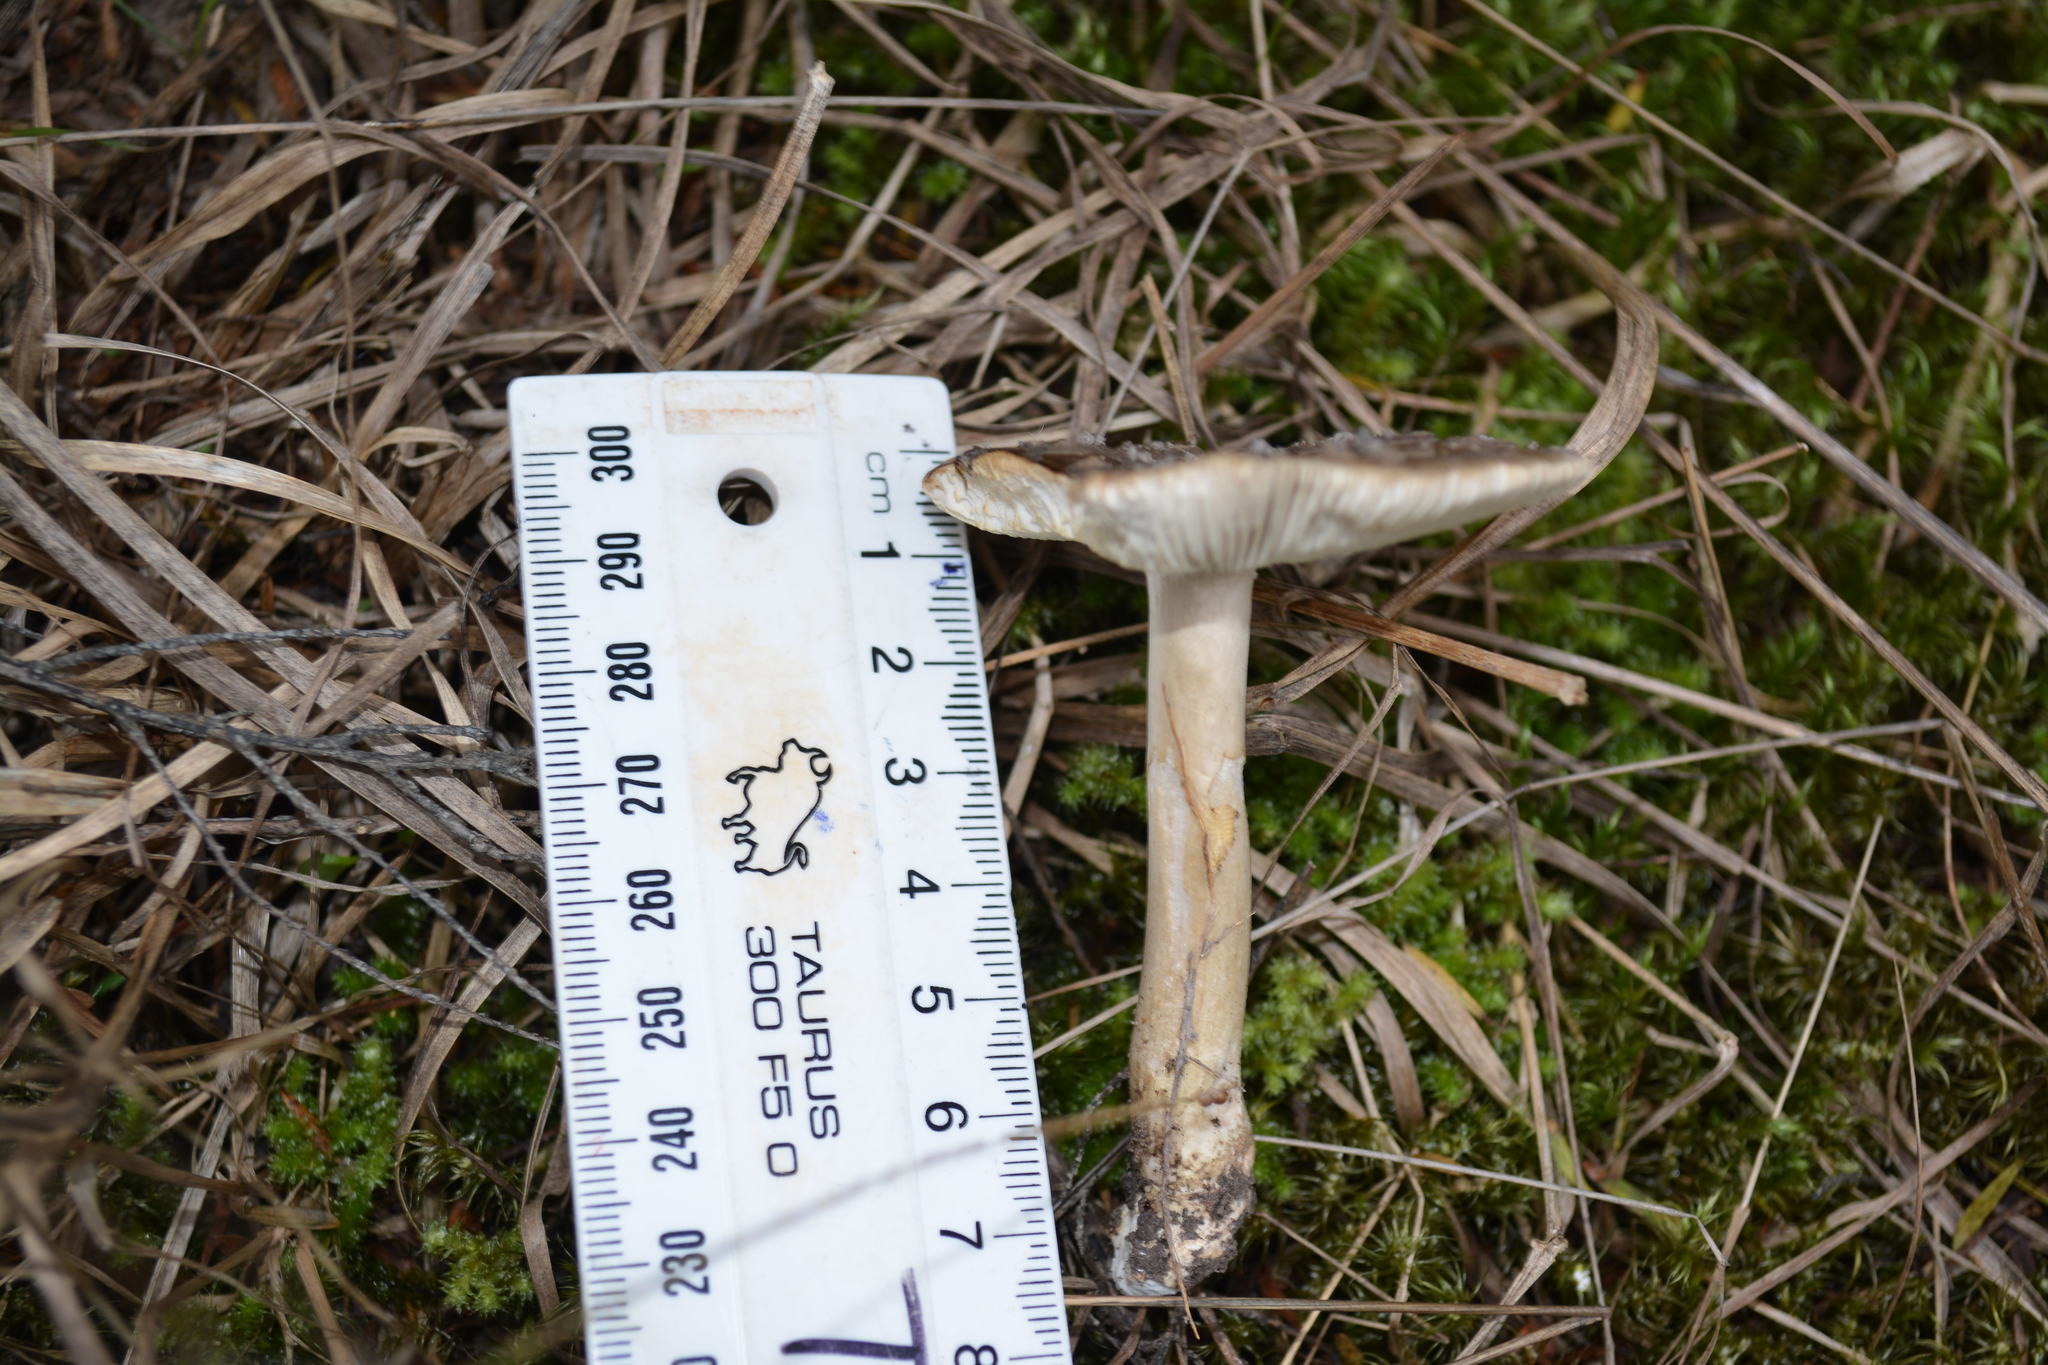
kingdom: Fungi
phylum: Basidiomycota
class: Agaricomycetes
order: Agaricales
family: Amanitaceae
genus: Amanita
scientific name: Amanita nothofagi
